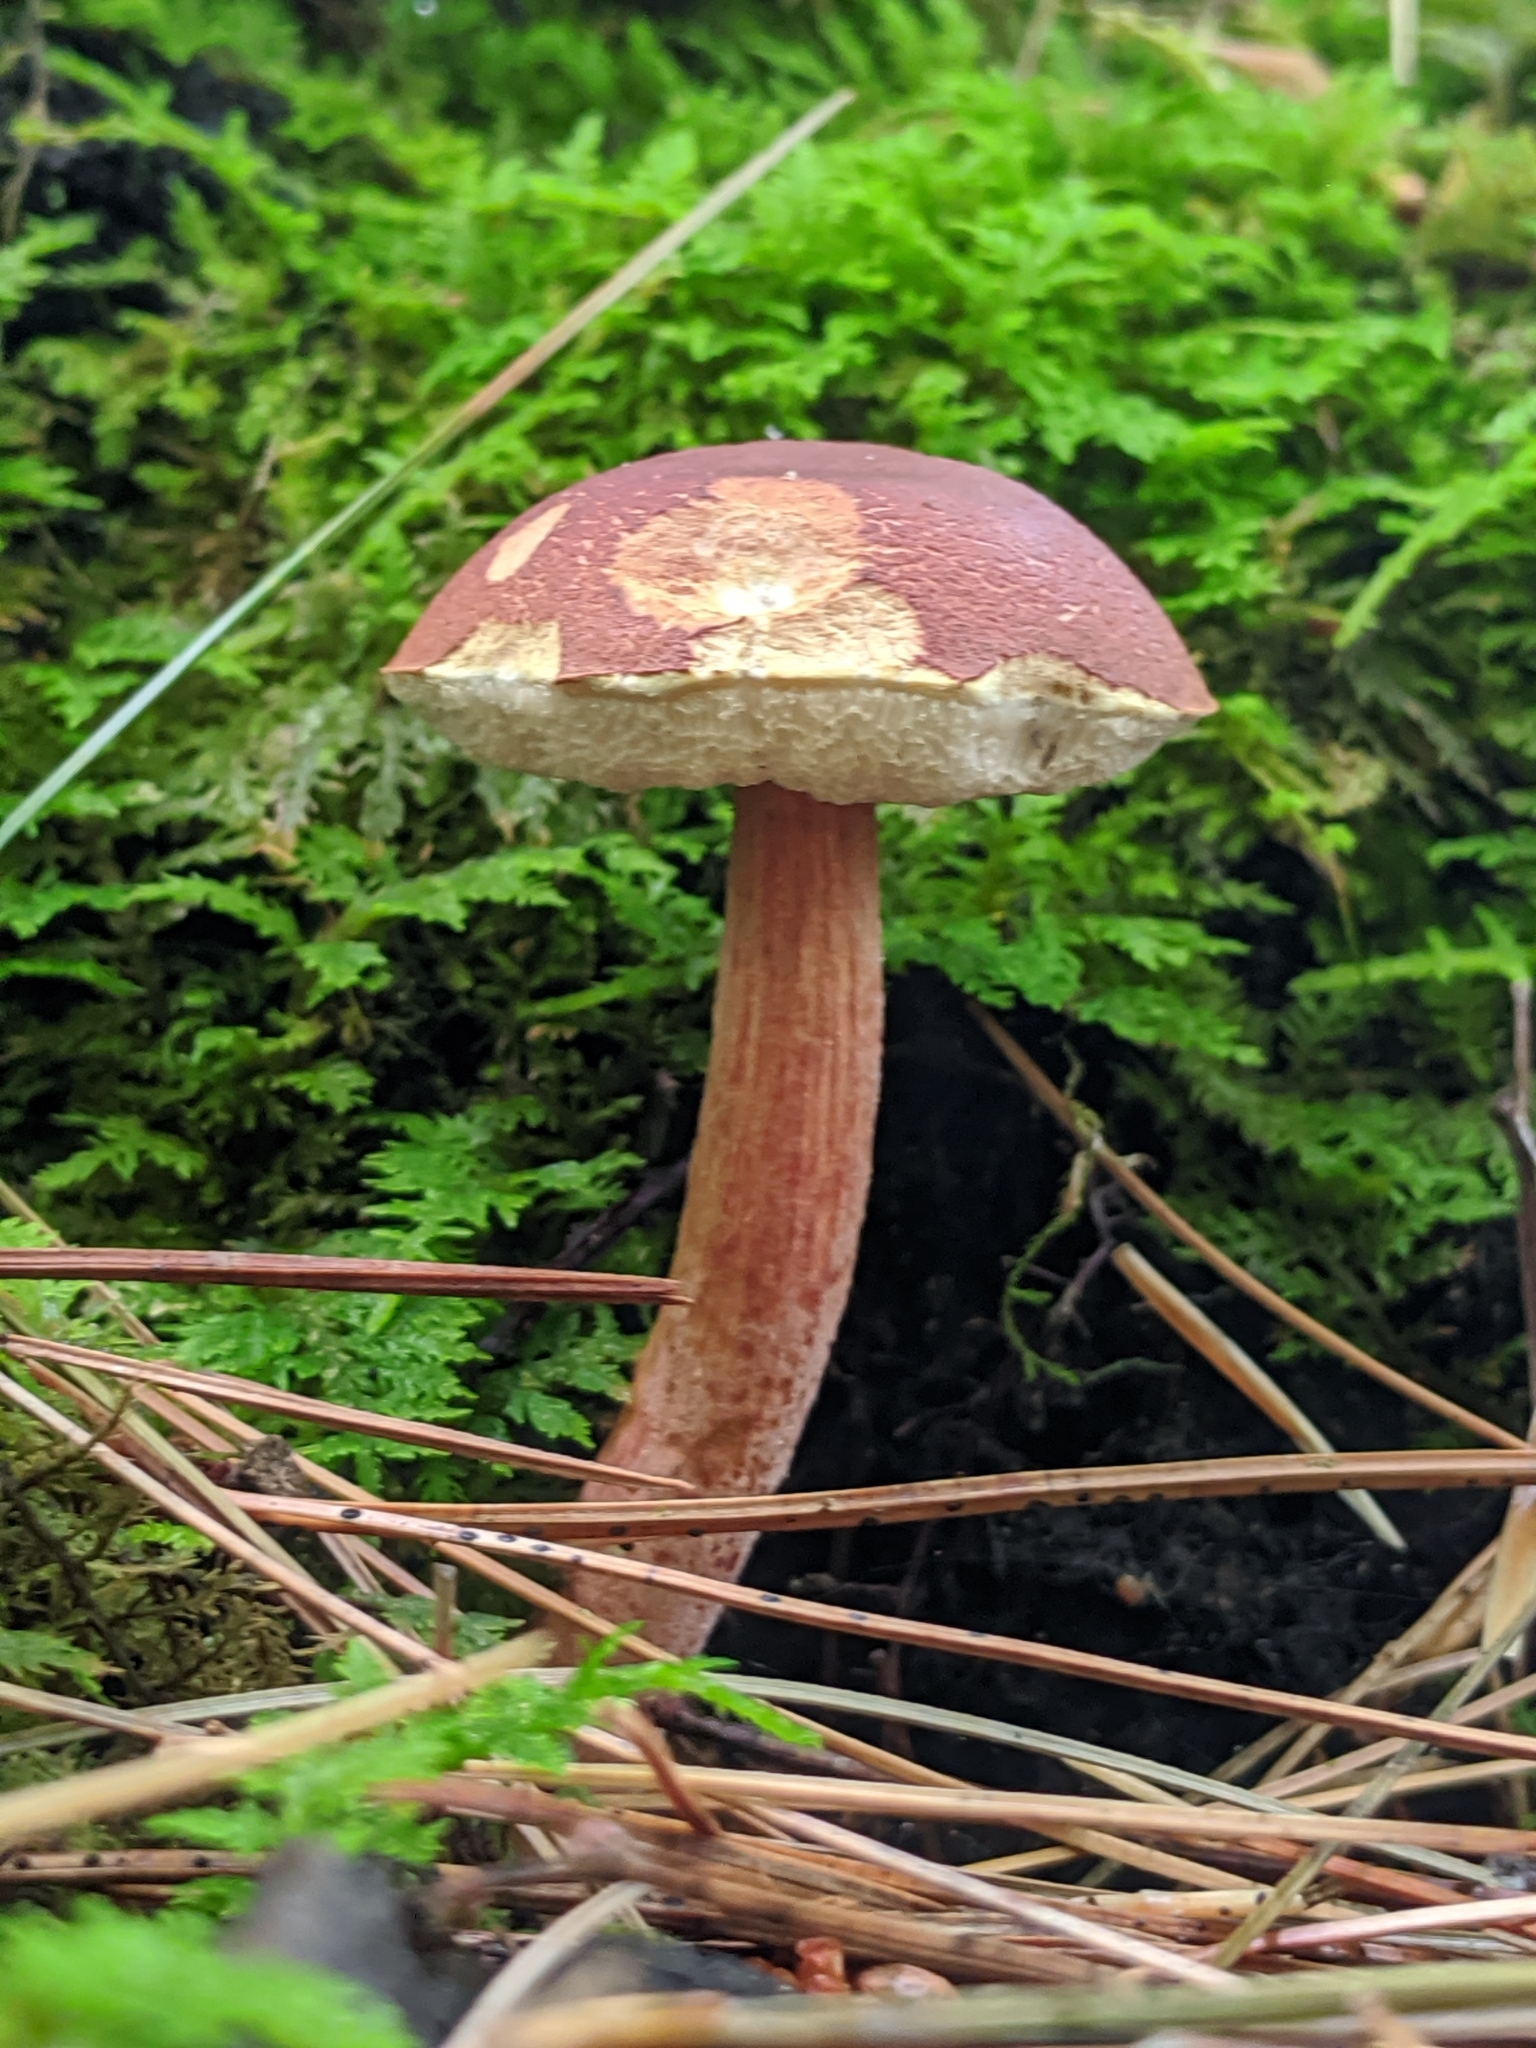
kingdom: Fungi
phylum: Basidiomycota
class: Agaricomycetes
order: Boletales
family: Boletaceae
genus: Austroboletus
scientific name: Austroboletus gracilis
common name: Graceful bolete
